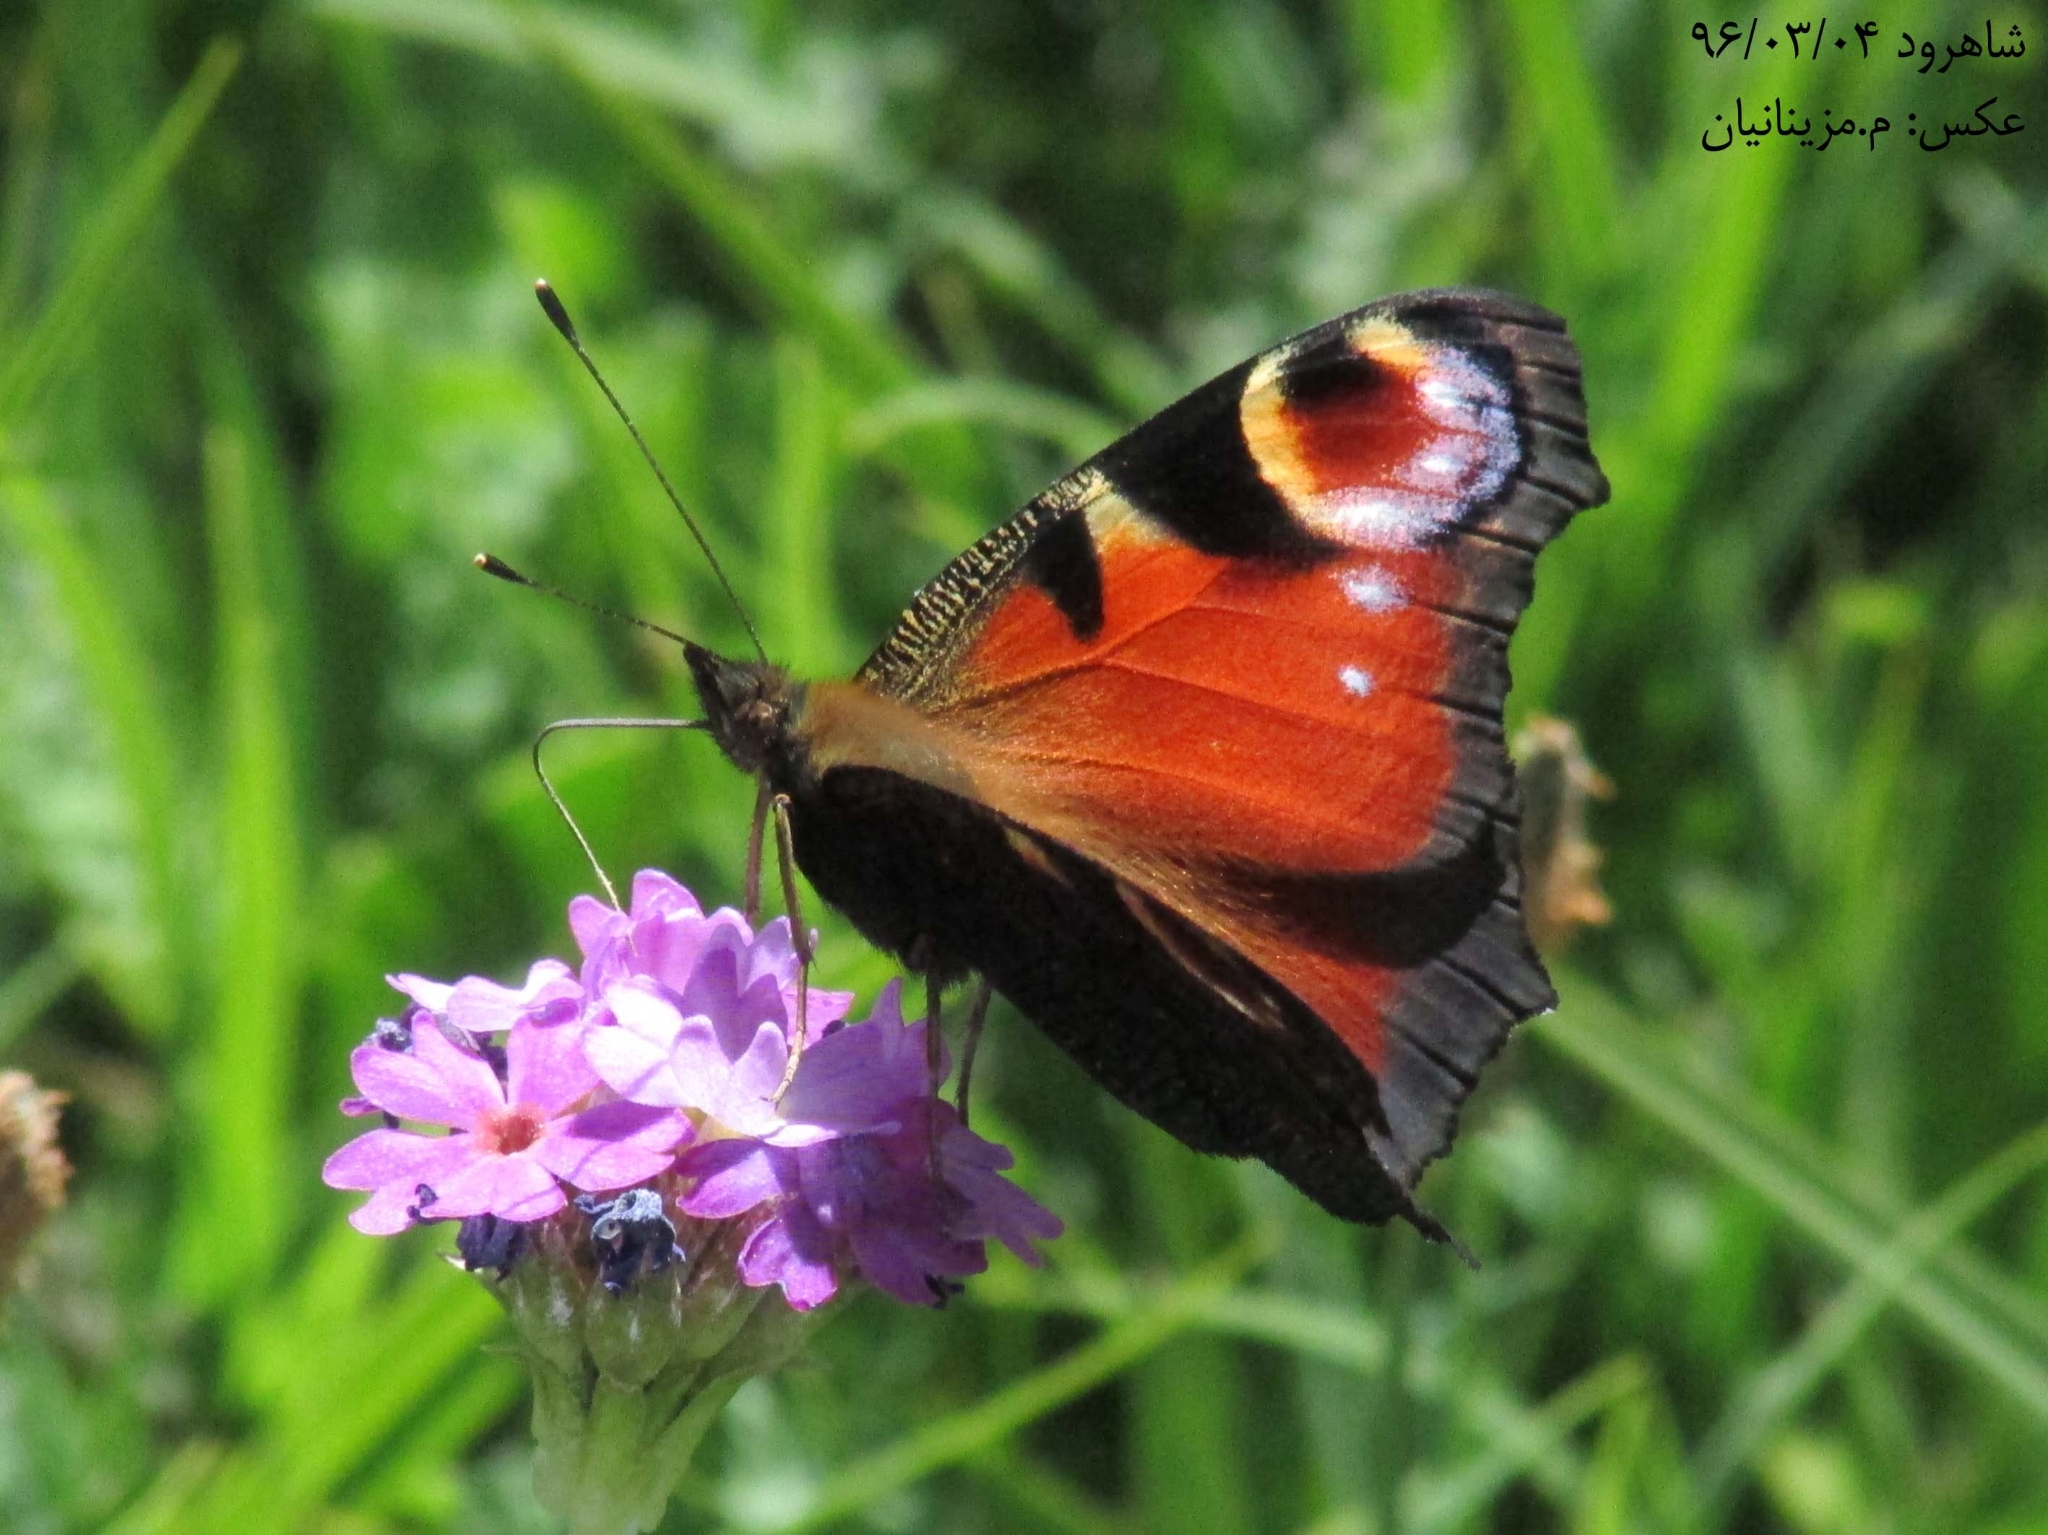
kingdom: Animalia
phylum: Arthropoda
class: Insecta
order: Lepidoptera
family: Nymphalidae
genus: Aglais
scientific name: Aglais io
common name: Peacock
